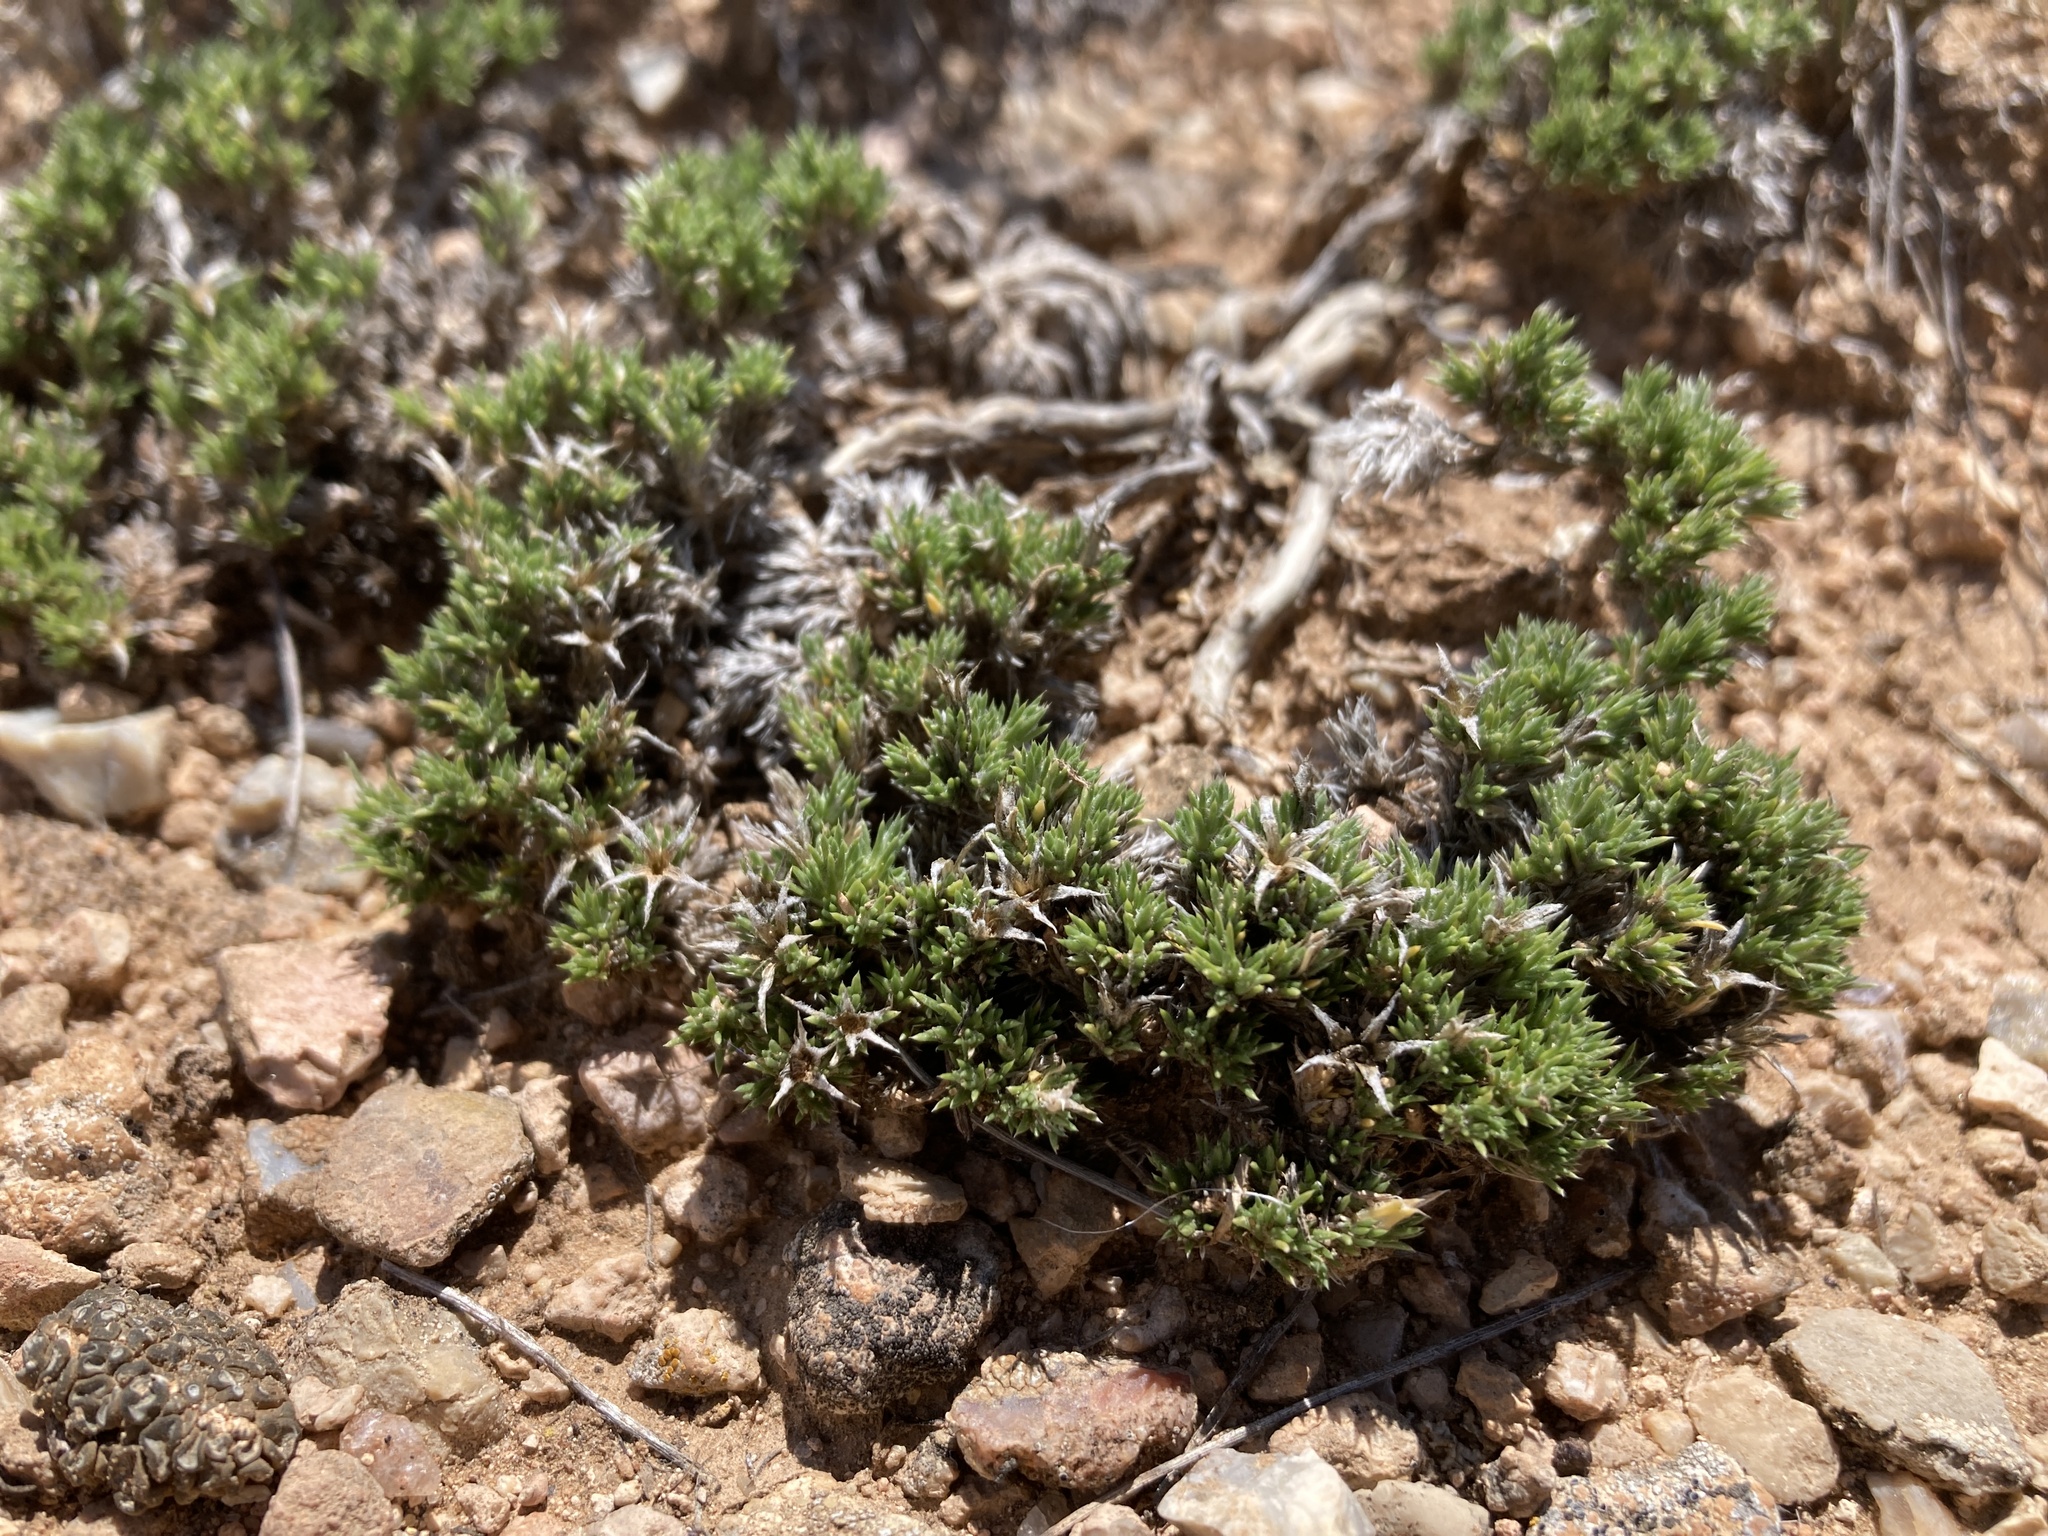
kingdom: Plantae
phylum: Tracheophyta
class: Magnoliopsida
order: Ericales
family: Polemoniaceae
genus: Phlox
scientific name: Phlox hoodii
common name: Moss phlox
